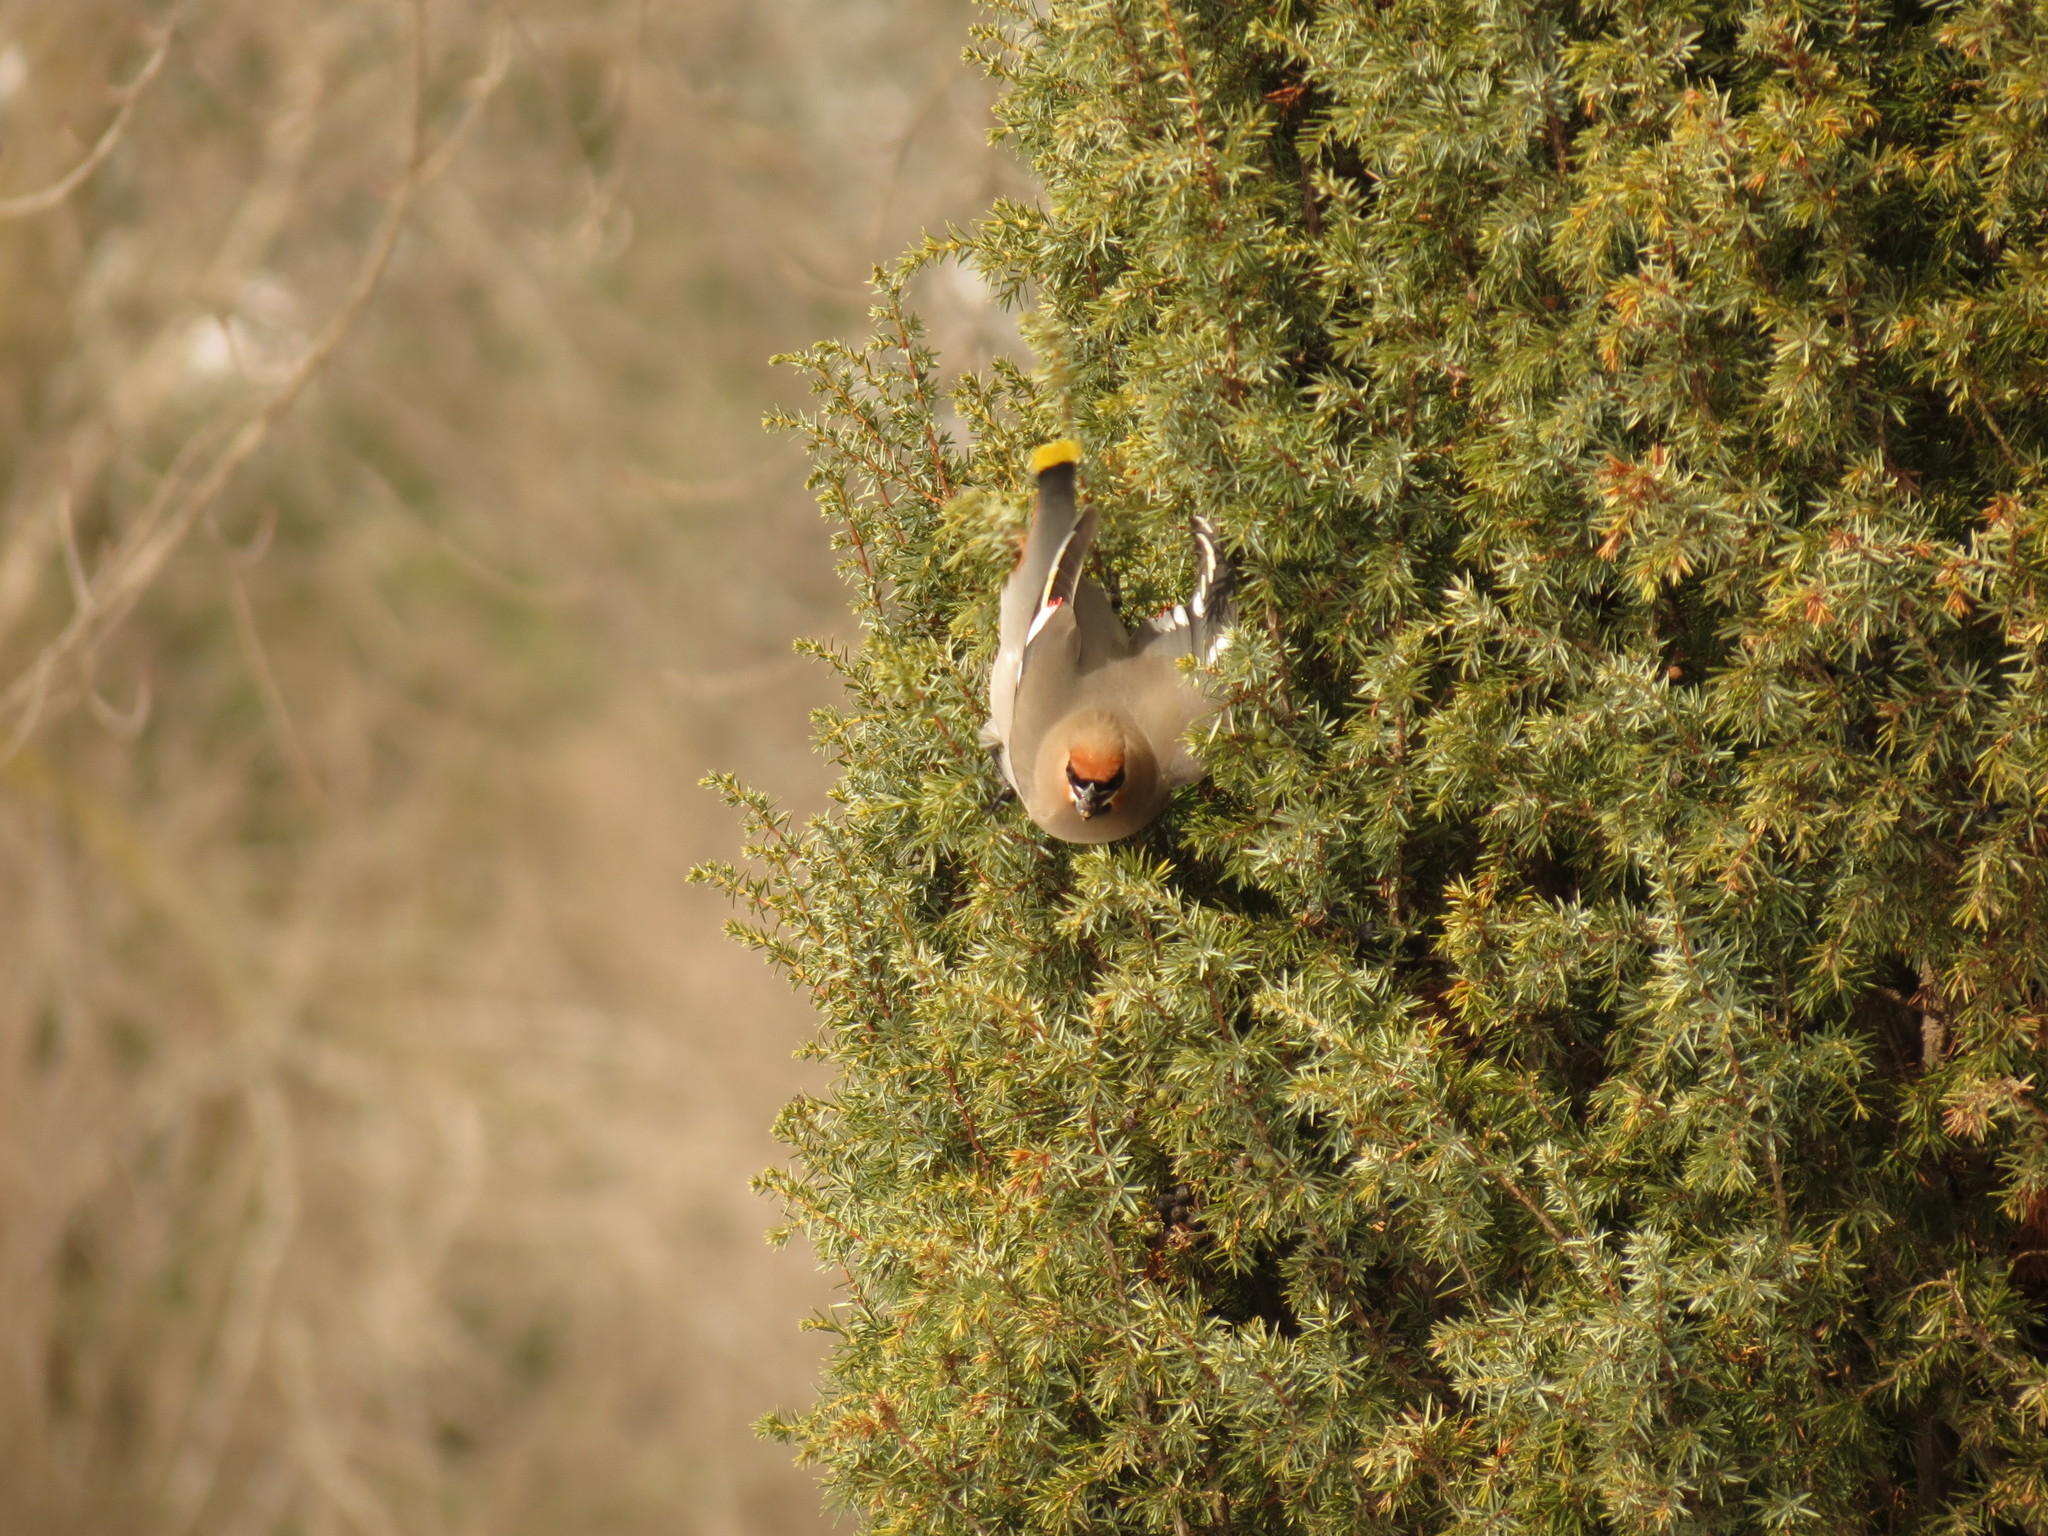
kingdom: Animalia
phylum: Chordata
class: Aves
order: Passeriformes
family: Bombycillidae
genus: Bombycilla
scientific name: Bombycilla garrulus
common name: Bohemian waxwing
